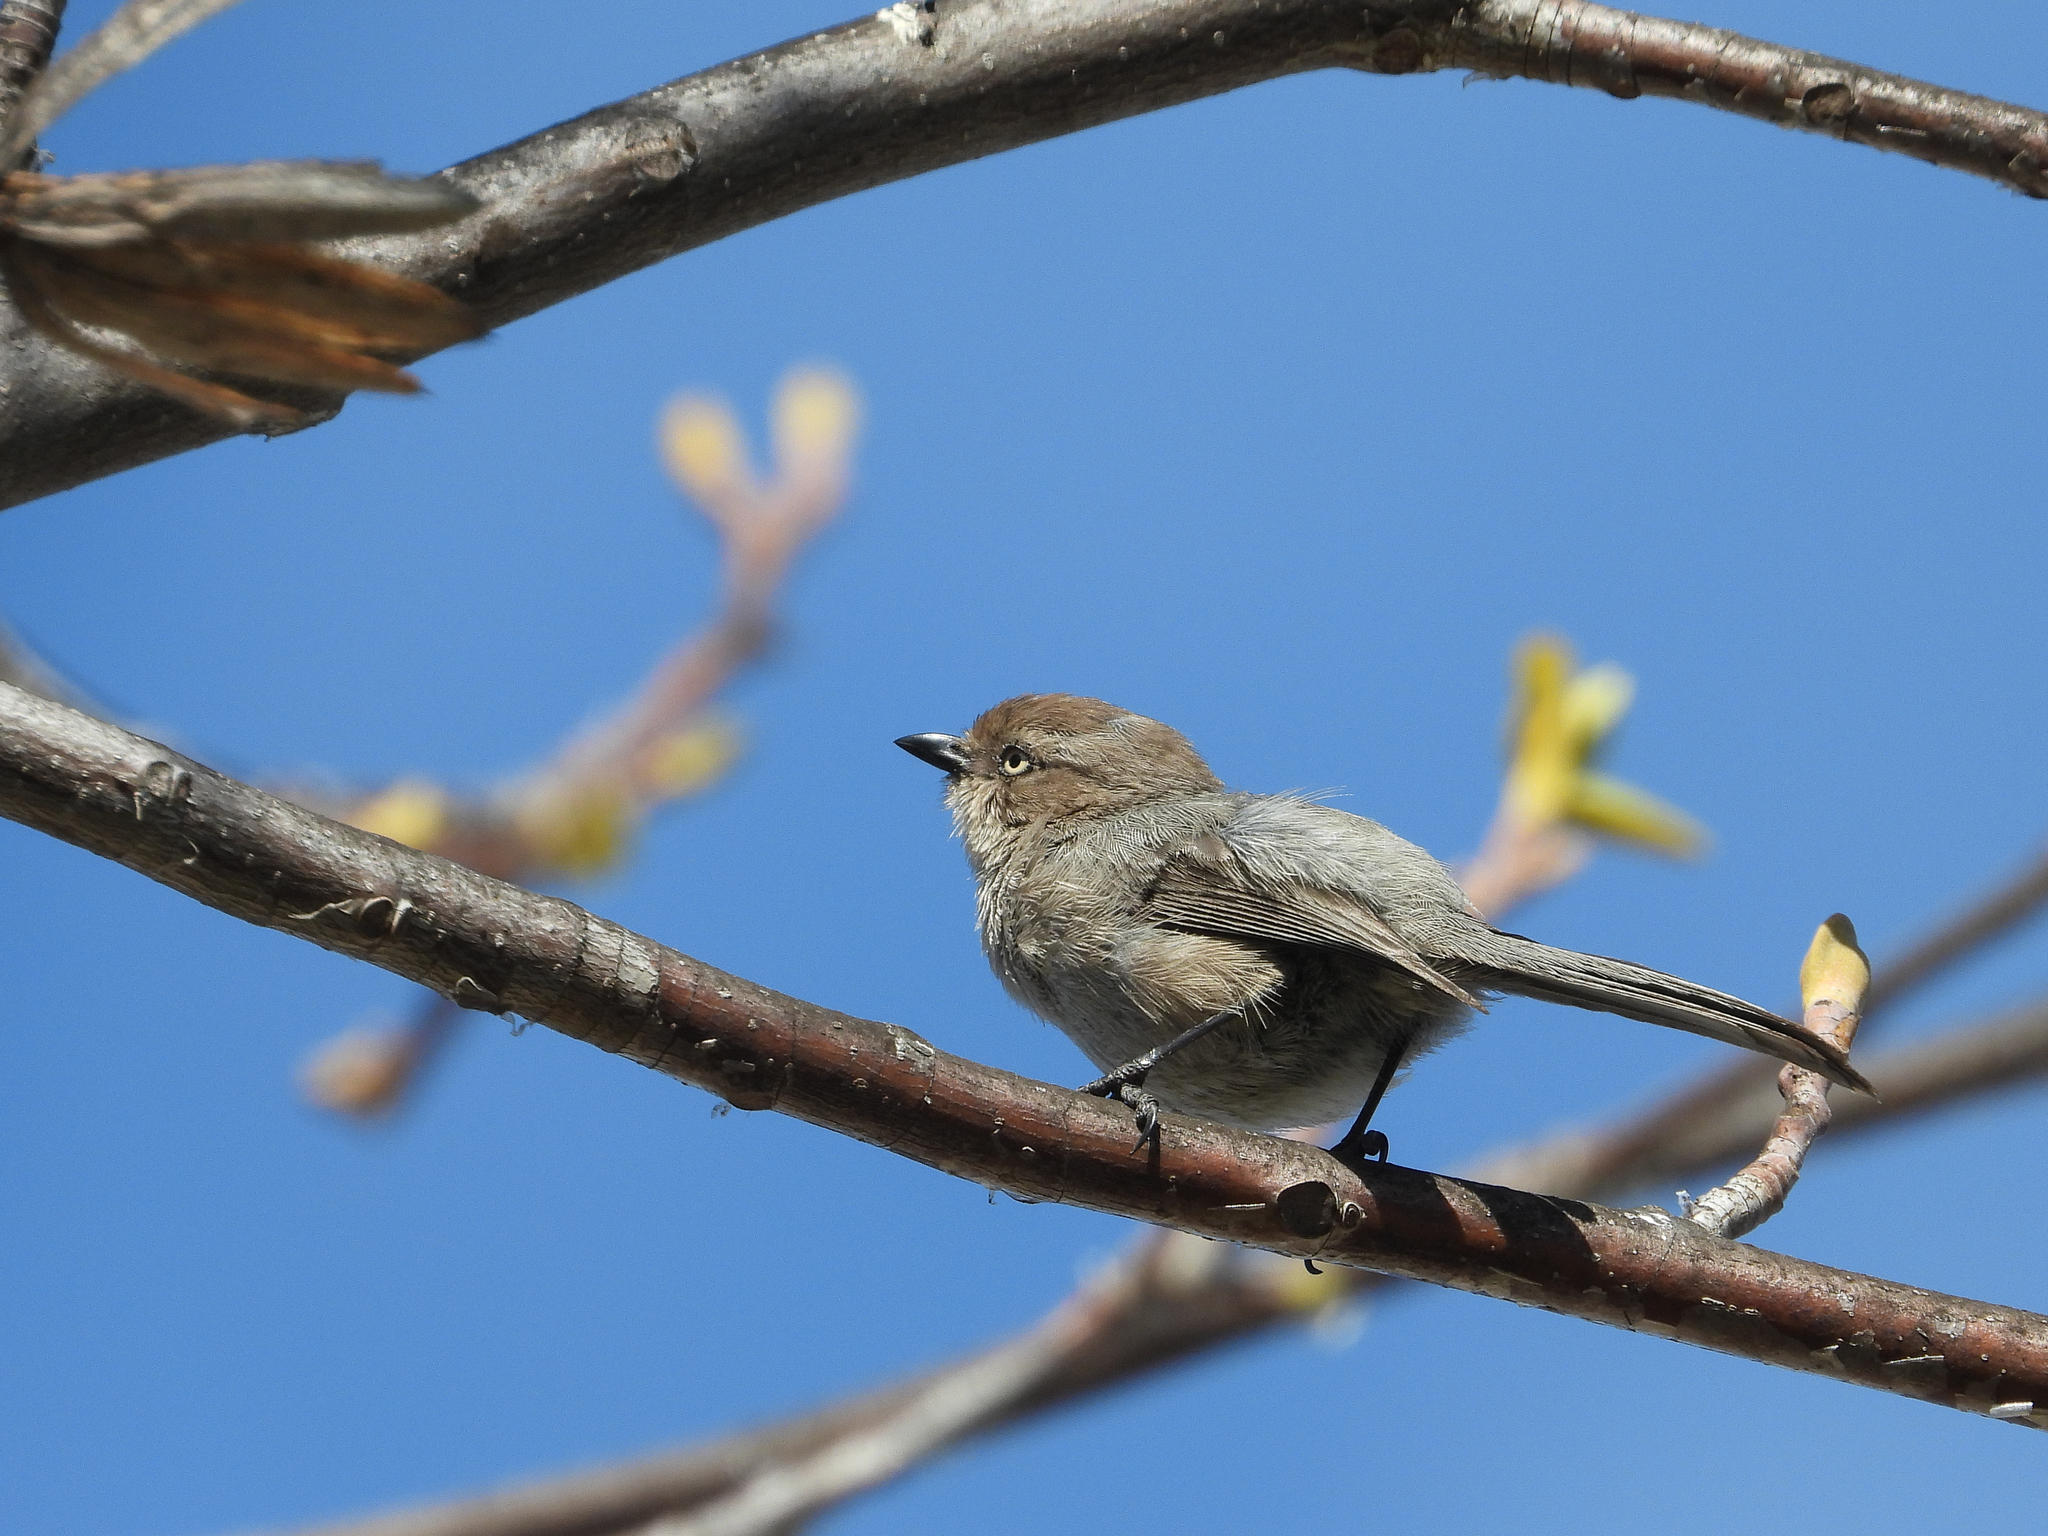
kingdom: Animalia
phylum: Chordata
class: Aves
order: Passeriformes
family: Aegithalidae
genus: Psaltriparus
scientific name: Psaltriparus minimus
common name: American bushtit
